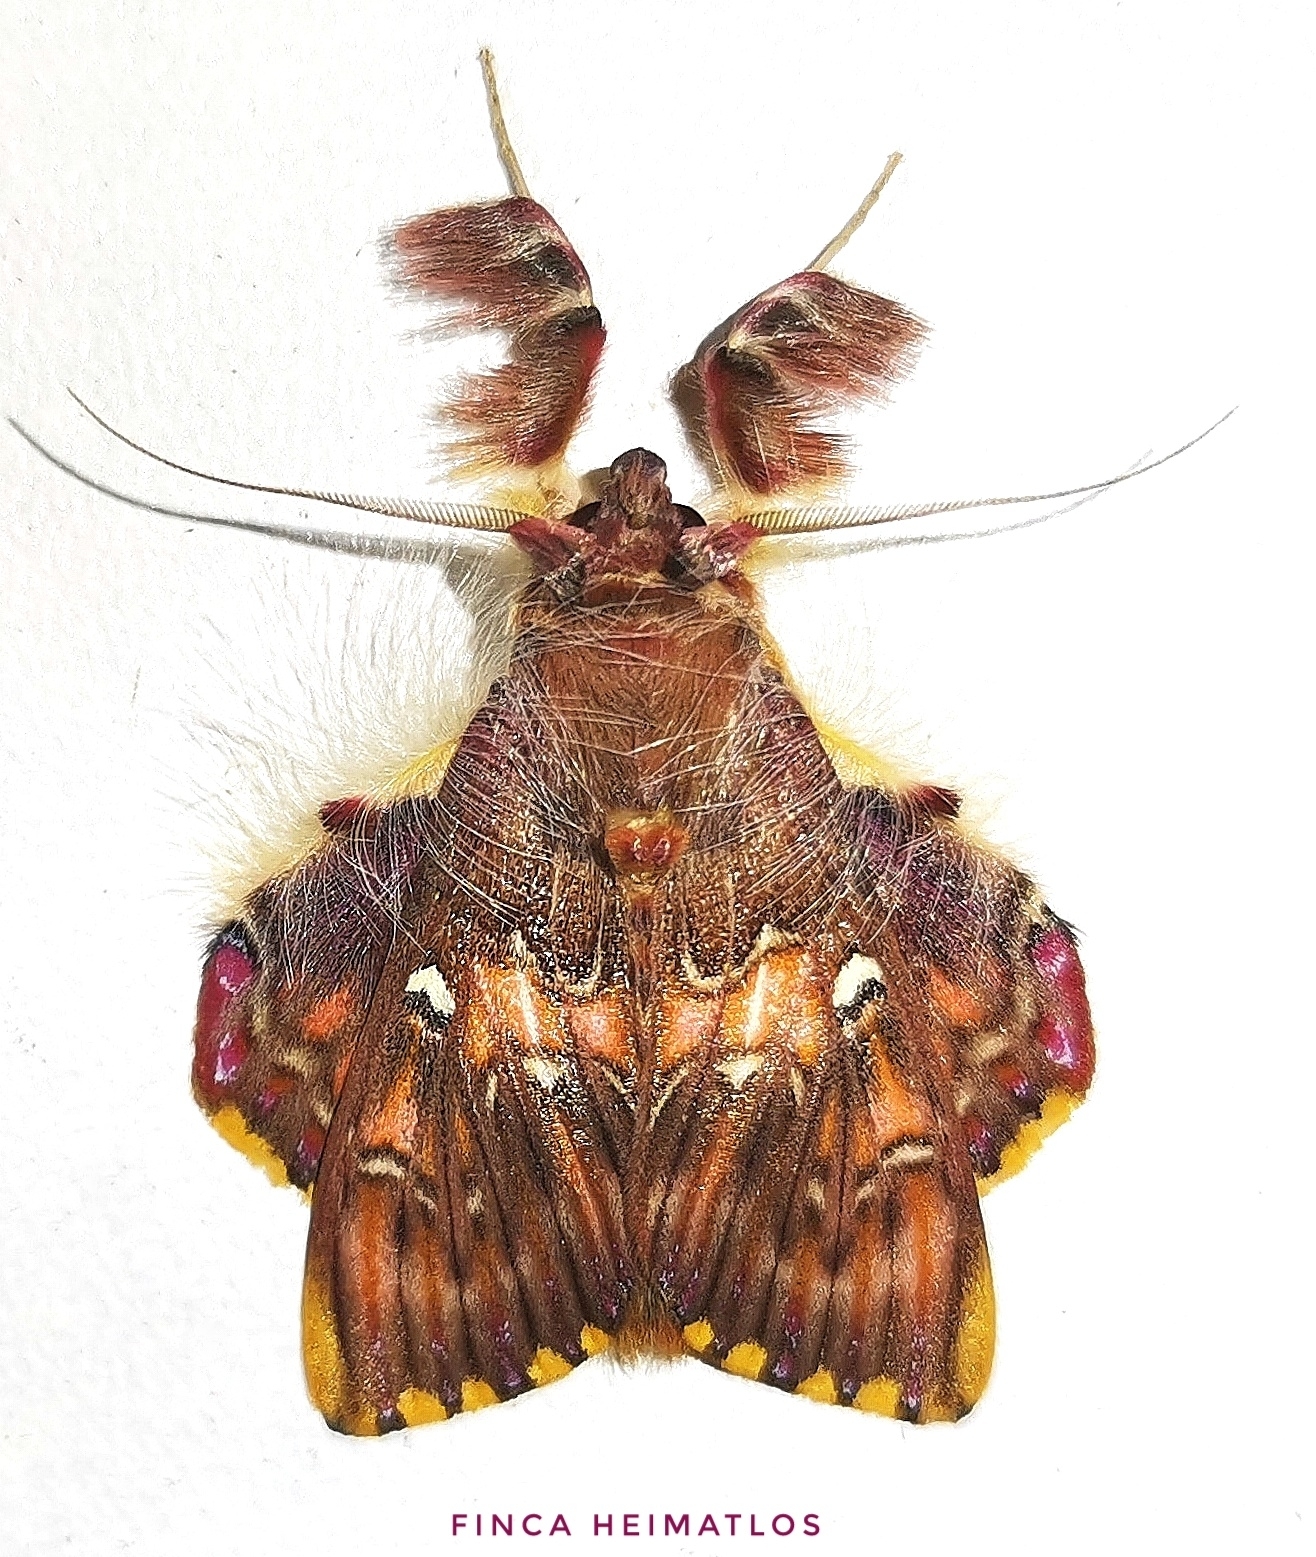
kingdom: Animalia
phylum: Arthropoda
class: Insecta
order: Lepidoptera
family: Erebidae
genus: Sosxetra
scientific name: Sosxetra grata
